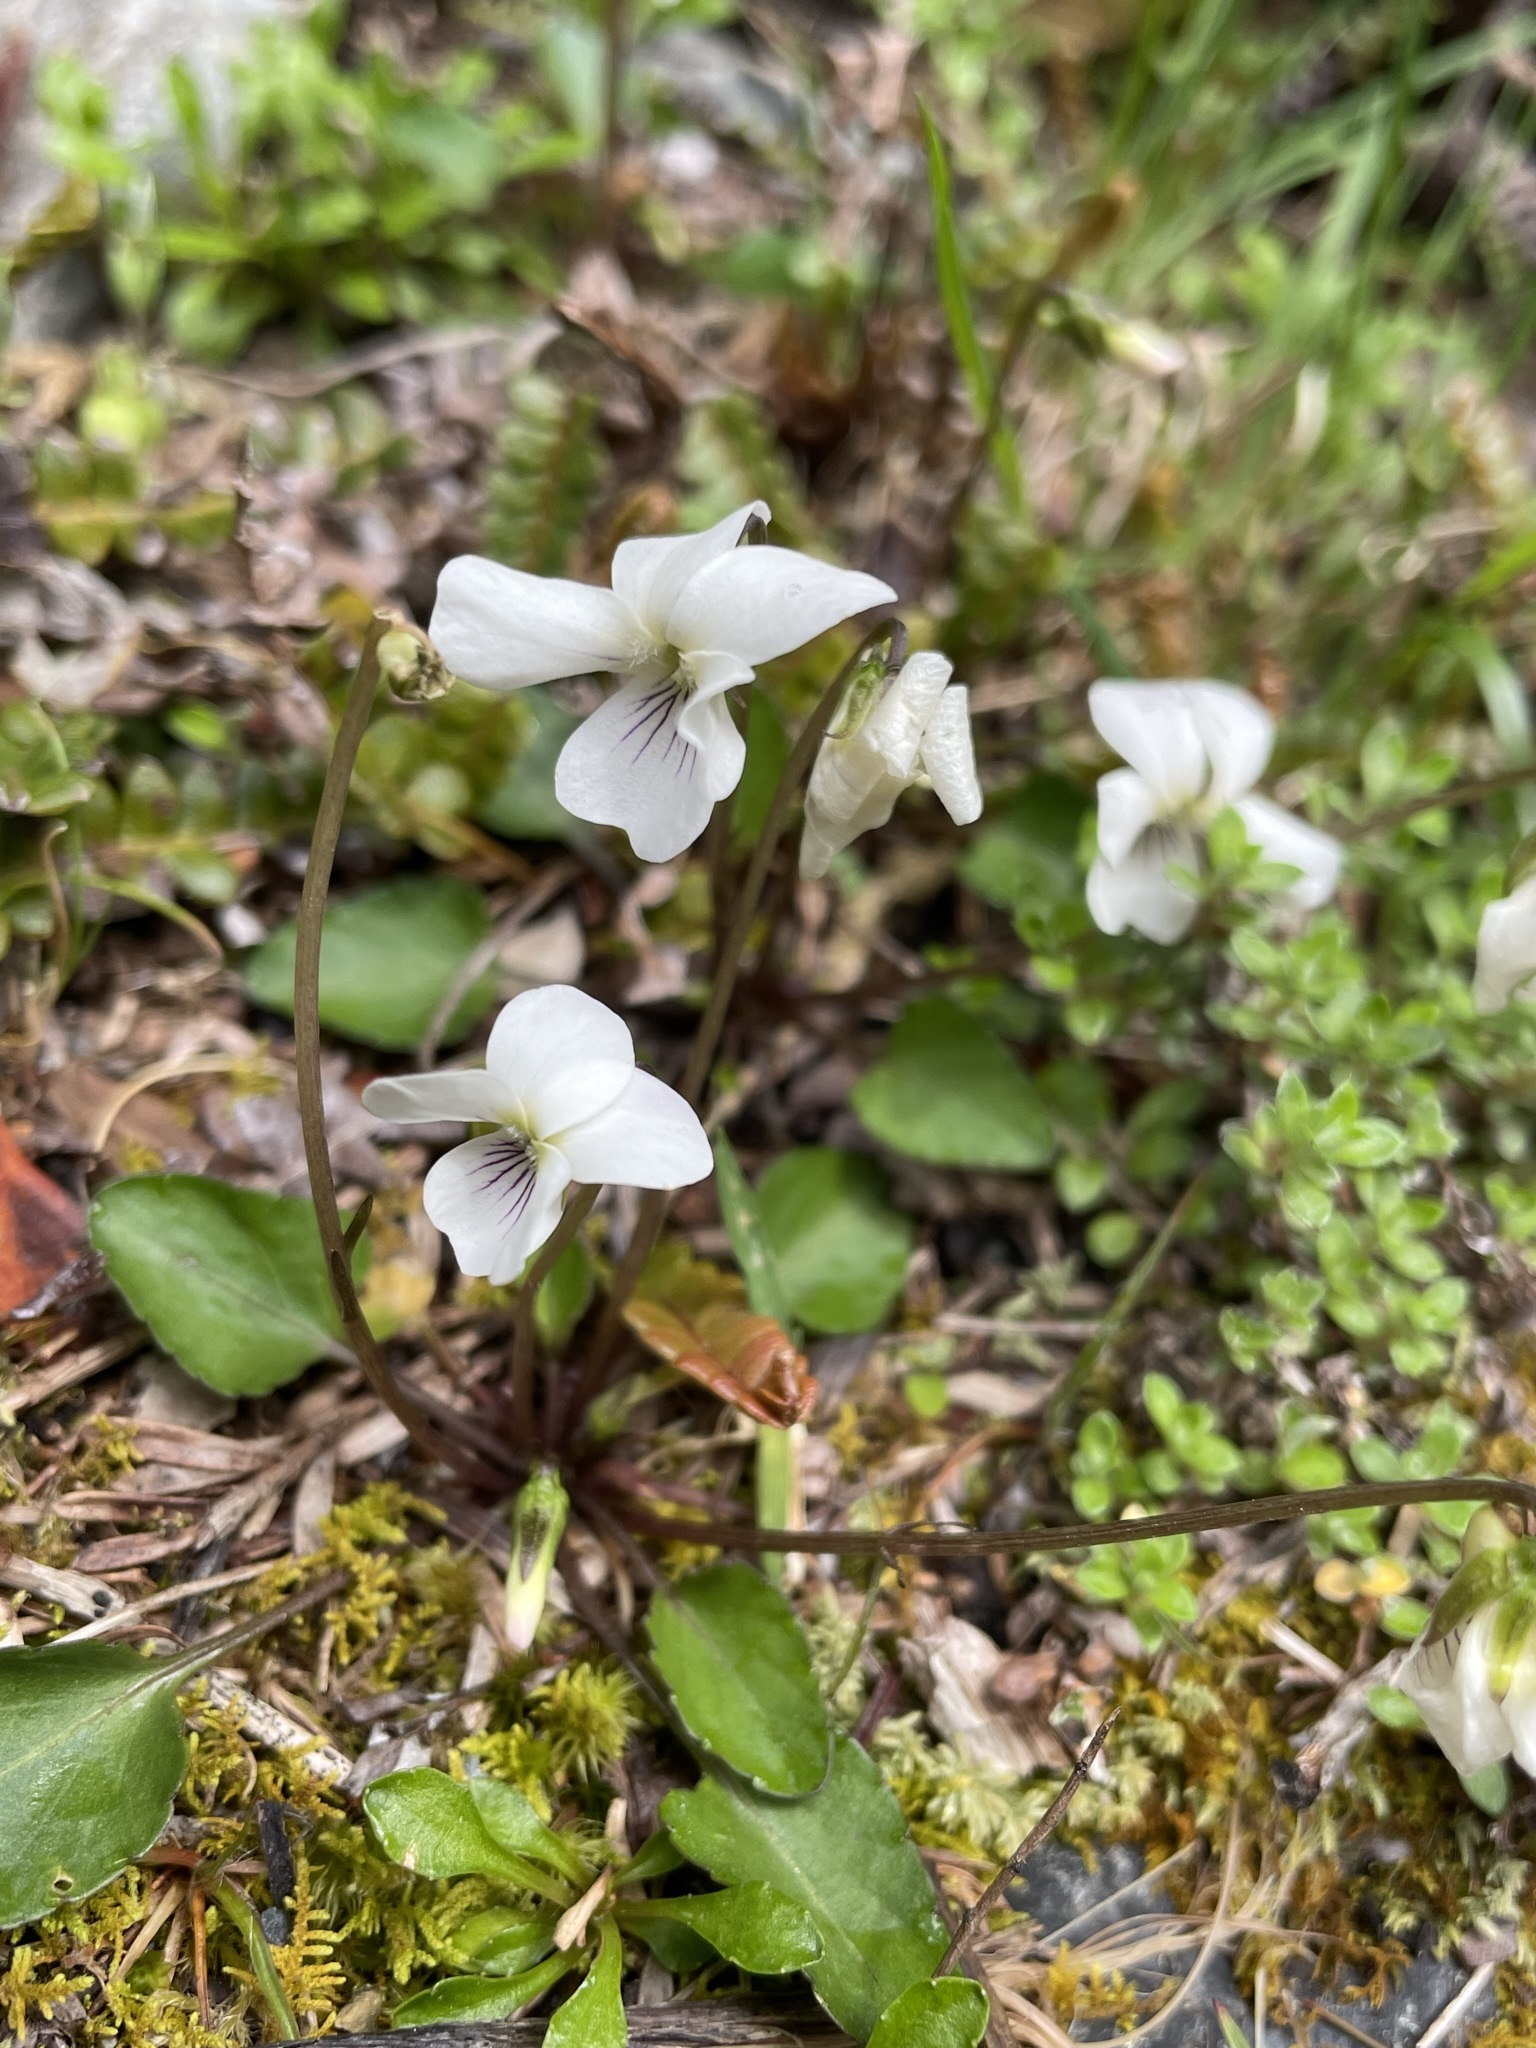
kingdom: Plantae
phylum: Tracheophyta
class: Magnoliopsida
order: Malpighiales
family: Violaceae
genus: Viola
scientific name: Viola cunninghamii
